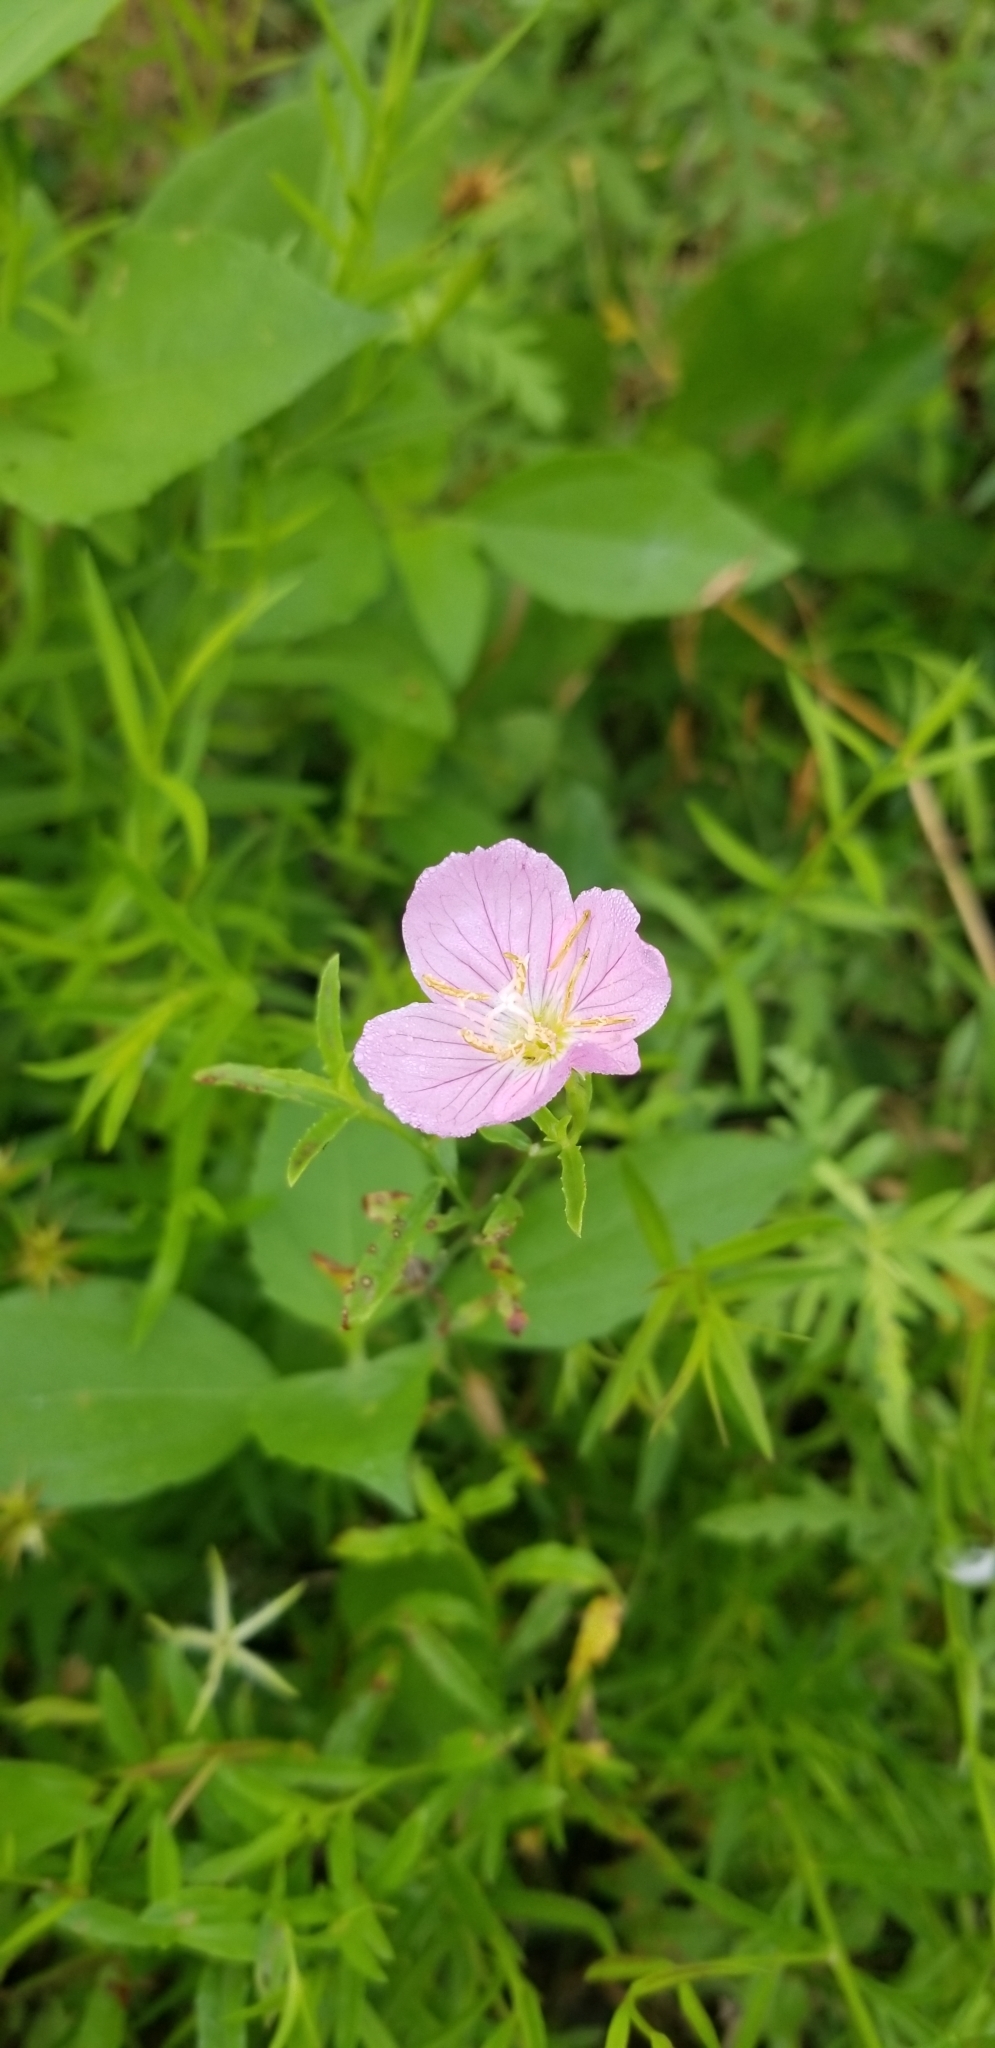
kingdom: Plantae
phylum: Tracheophyta
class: Magnoliopsida
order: Myrtales
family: Onagraceae
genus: Oenothera
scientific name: Oenothera speciosa
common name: White evening-primrose
